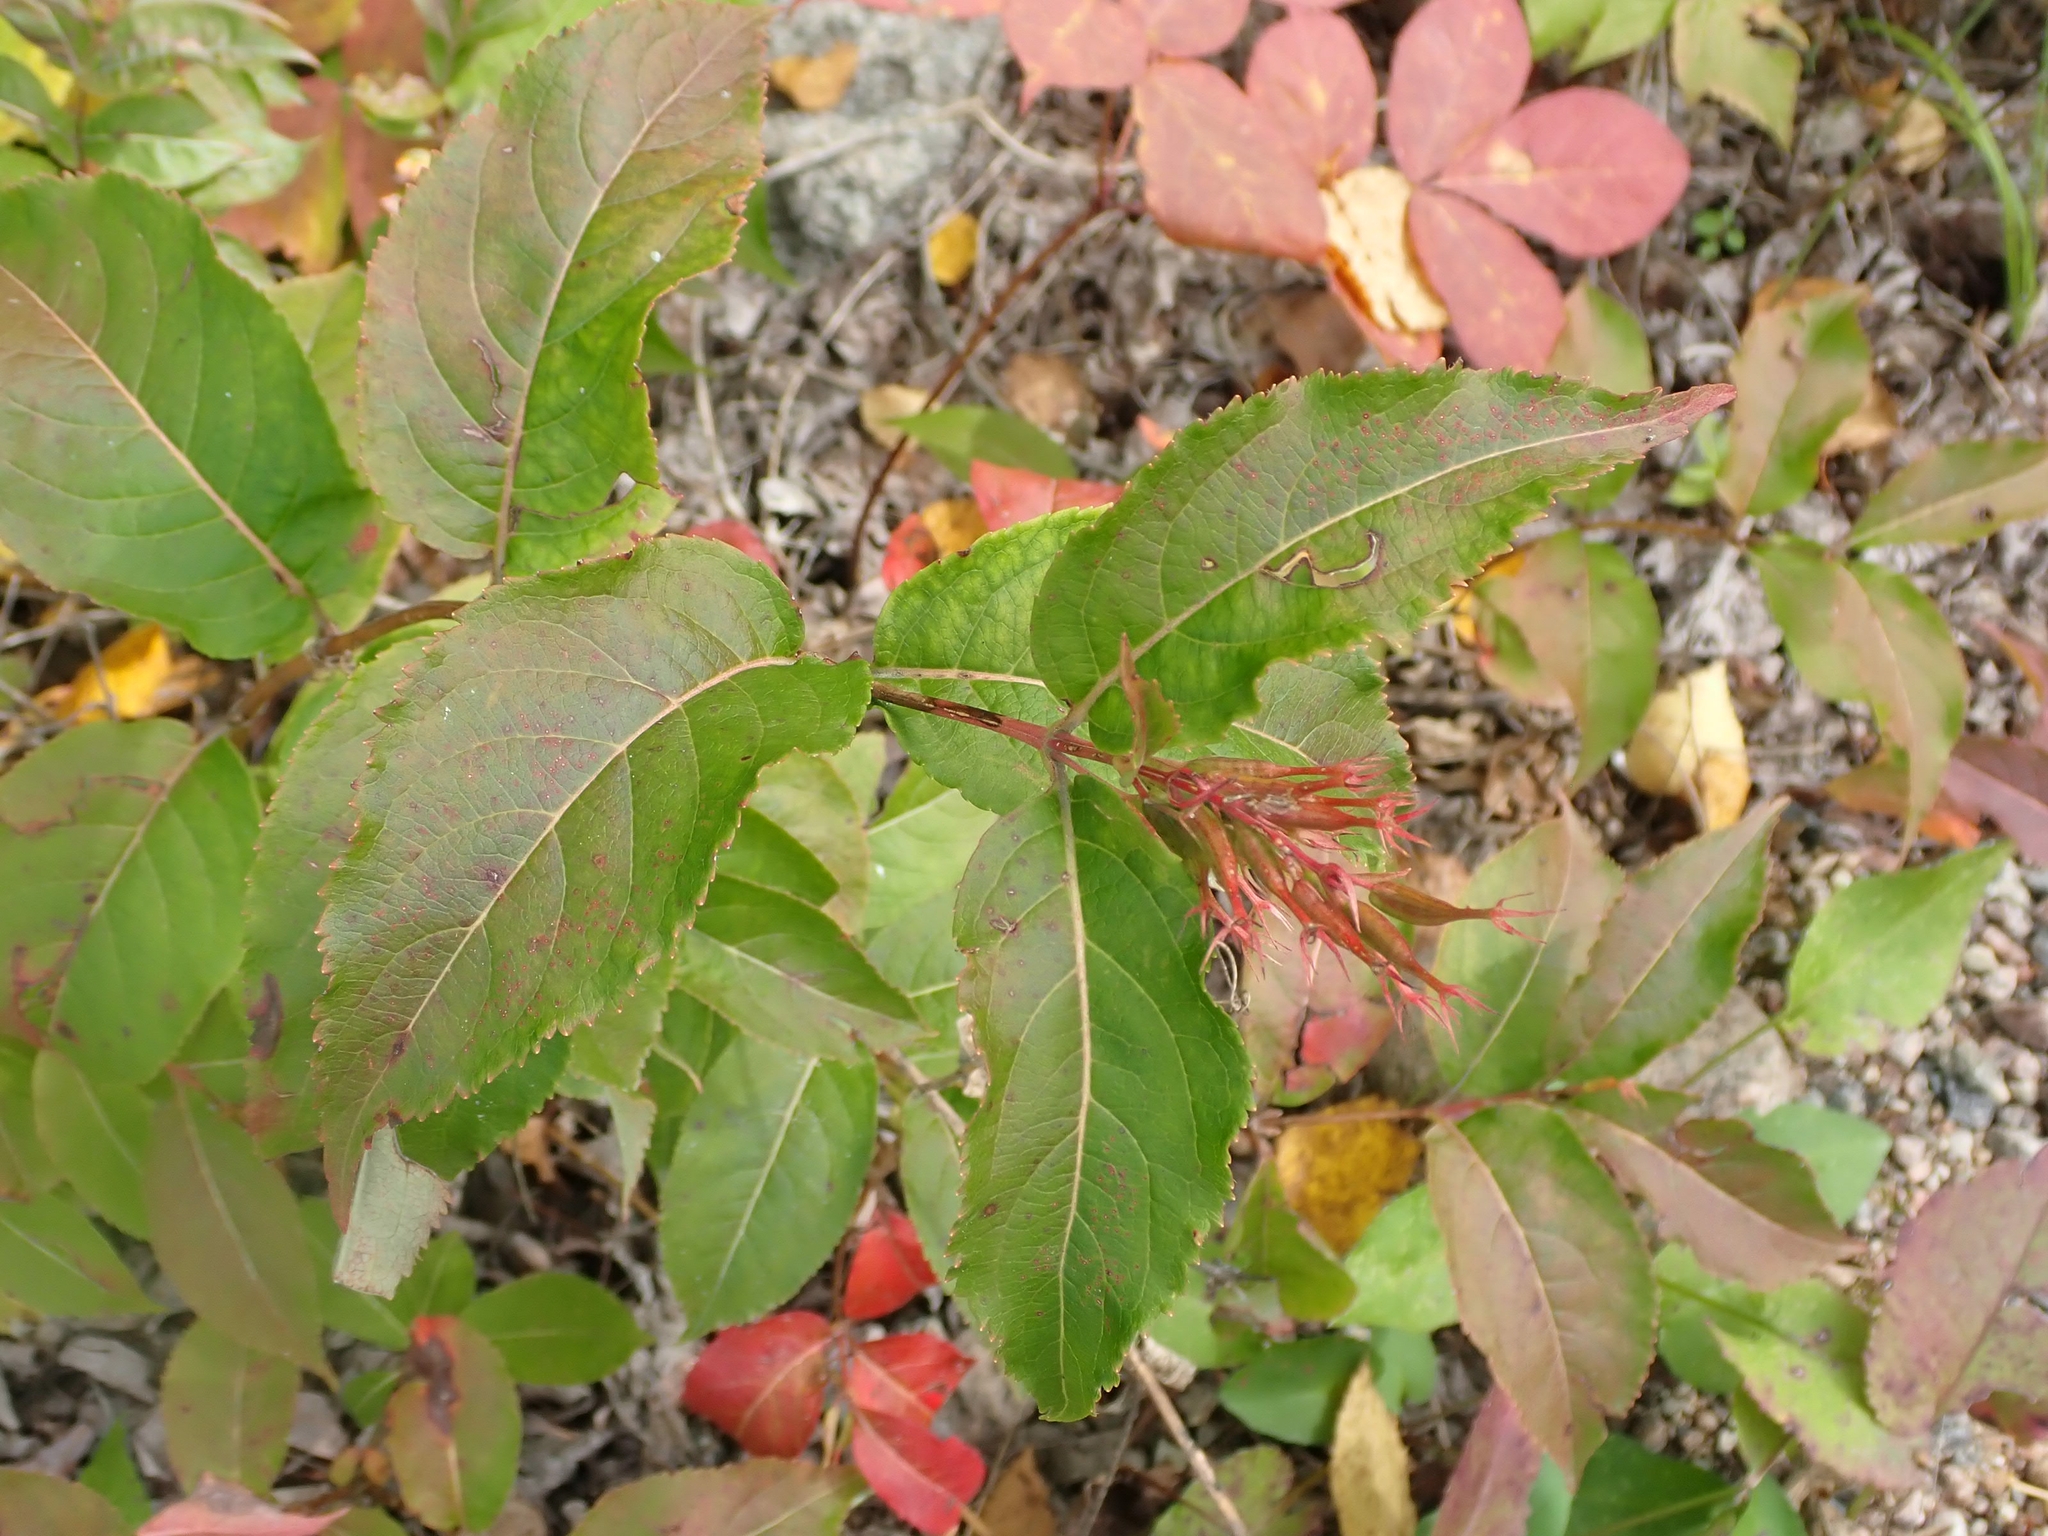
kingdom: Plantae
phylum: Tracheophyta
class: Magnoliopsida
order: Dipsacales
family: Caprifoliaceae
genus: Diervilla
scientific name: Diervilla lonicera
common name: Bush-honeysuckle
